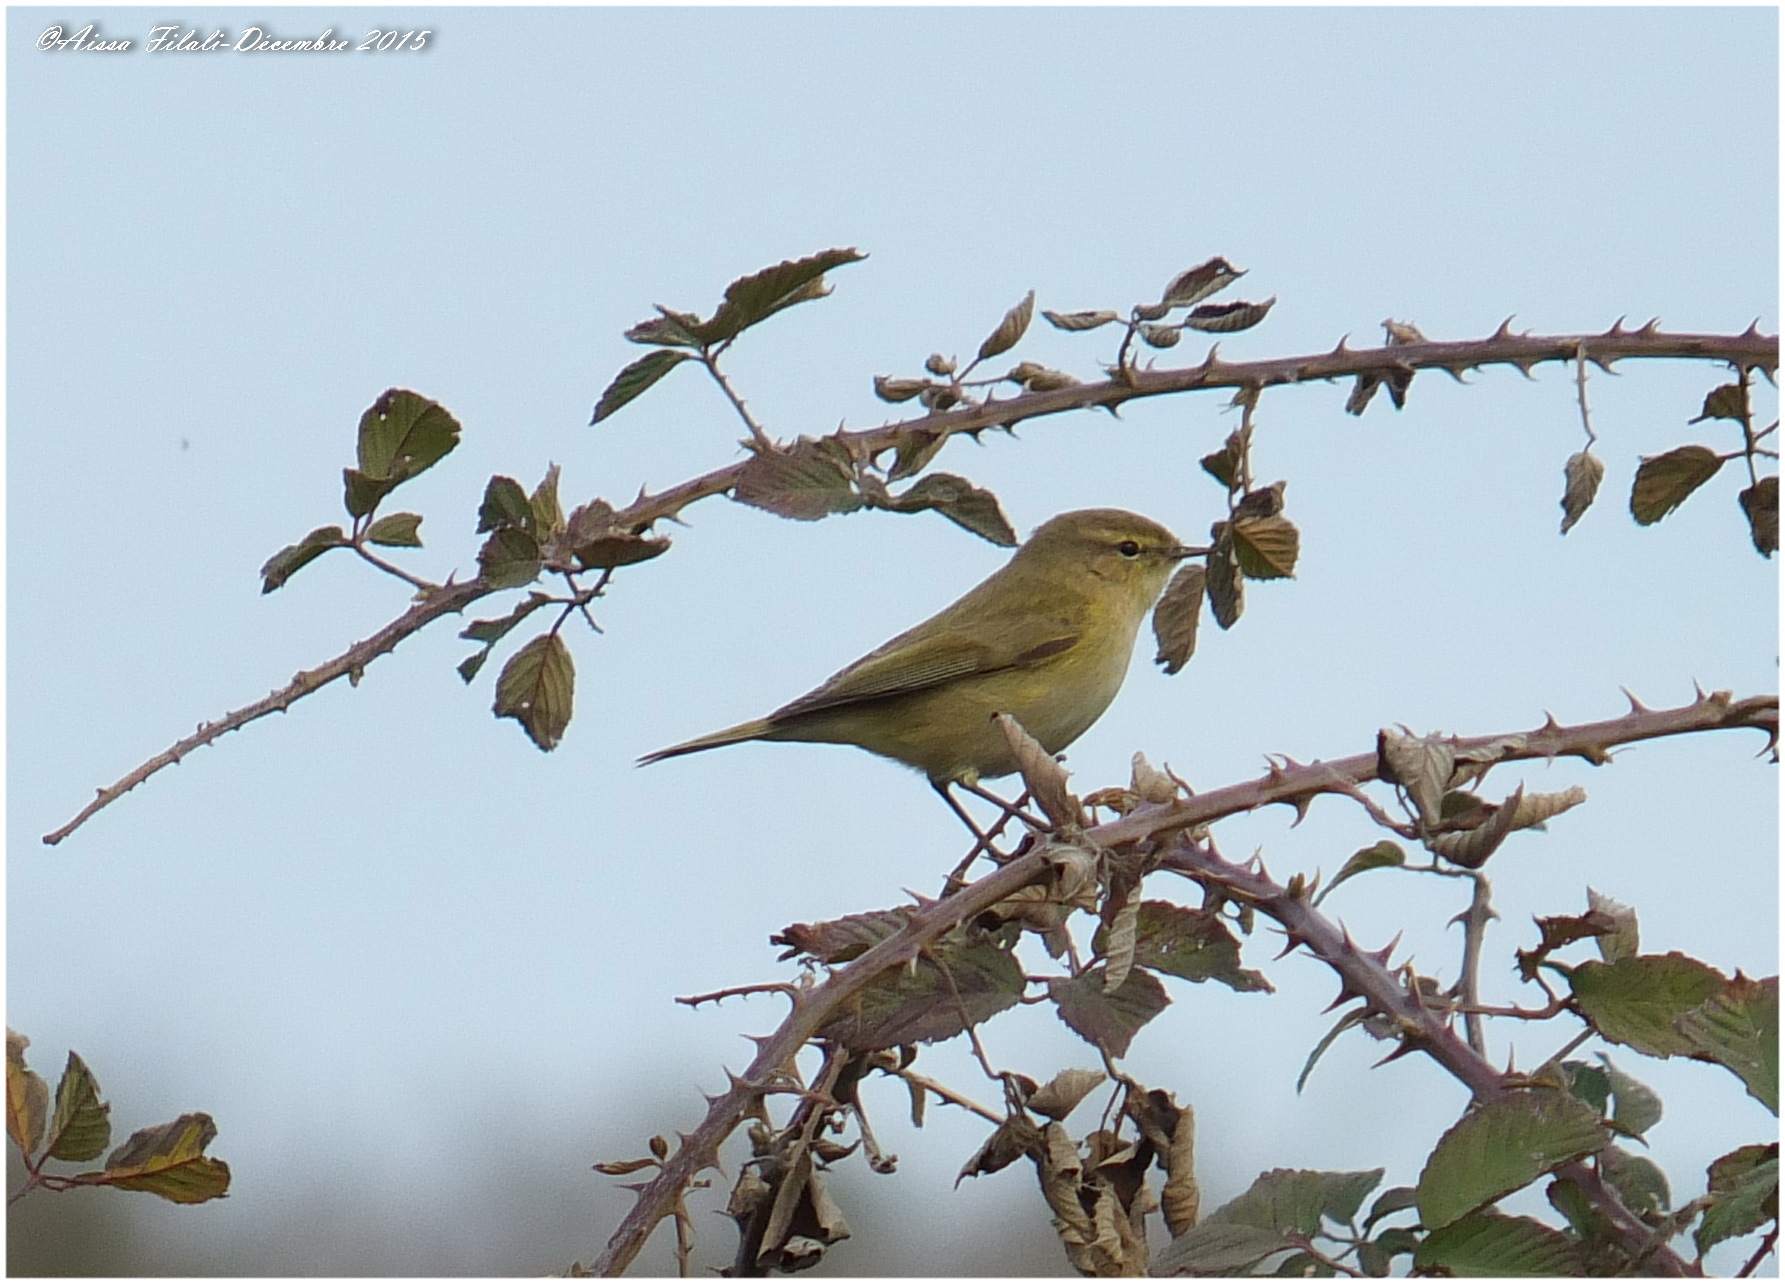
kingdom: Animalia
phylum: Chordata
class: Aves
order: Passeriformes
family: Phylloscopidae
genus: Phylloscopus
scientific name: Phylloscopus collybita
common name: Common chiffchaff
